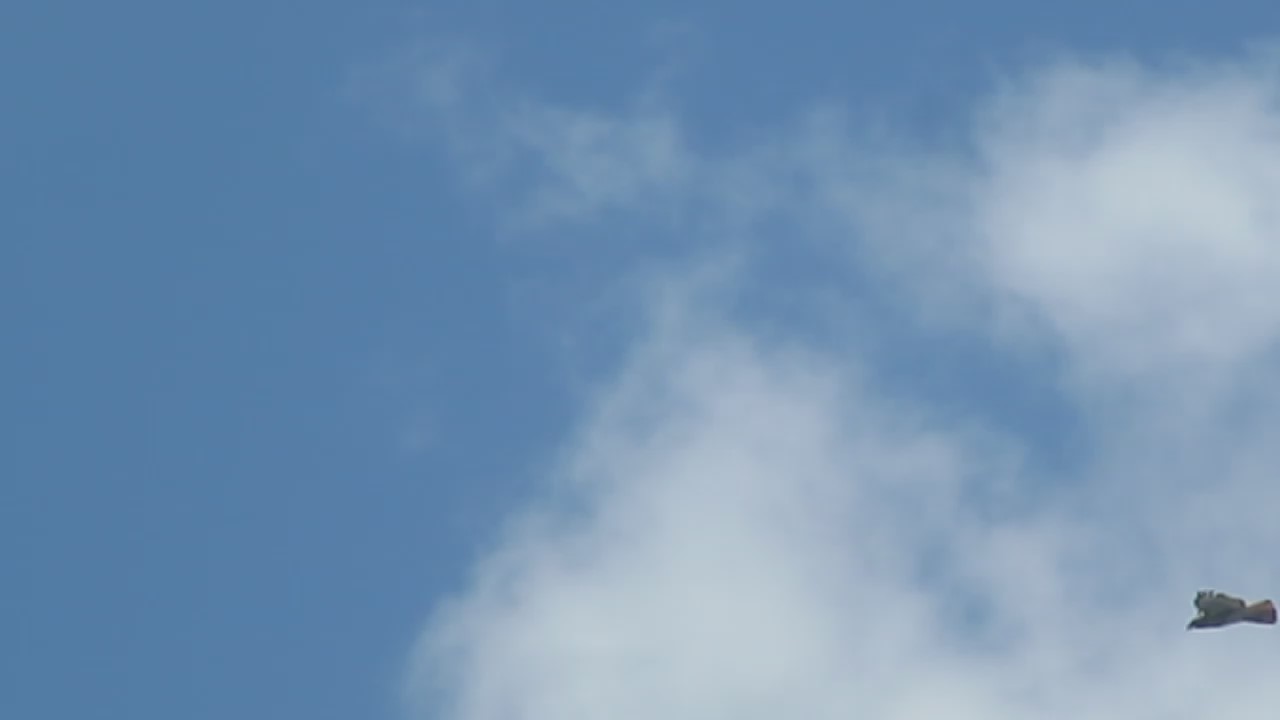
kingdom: Animalia
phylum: Chordata
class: Aves
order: Accipitriformes
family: Accipitridae
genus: Buteo
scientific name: Buteo jamaicensis
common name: Red-tailed hawk
